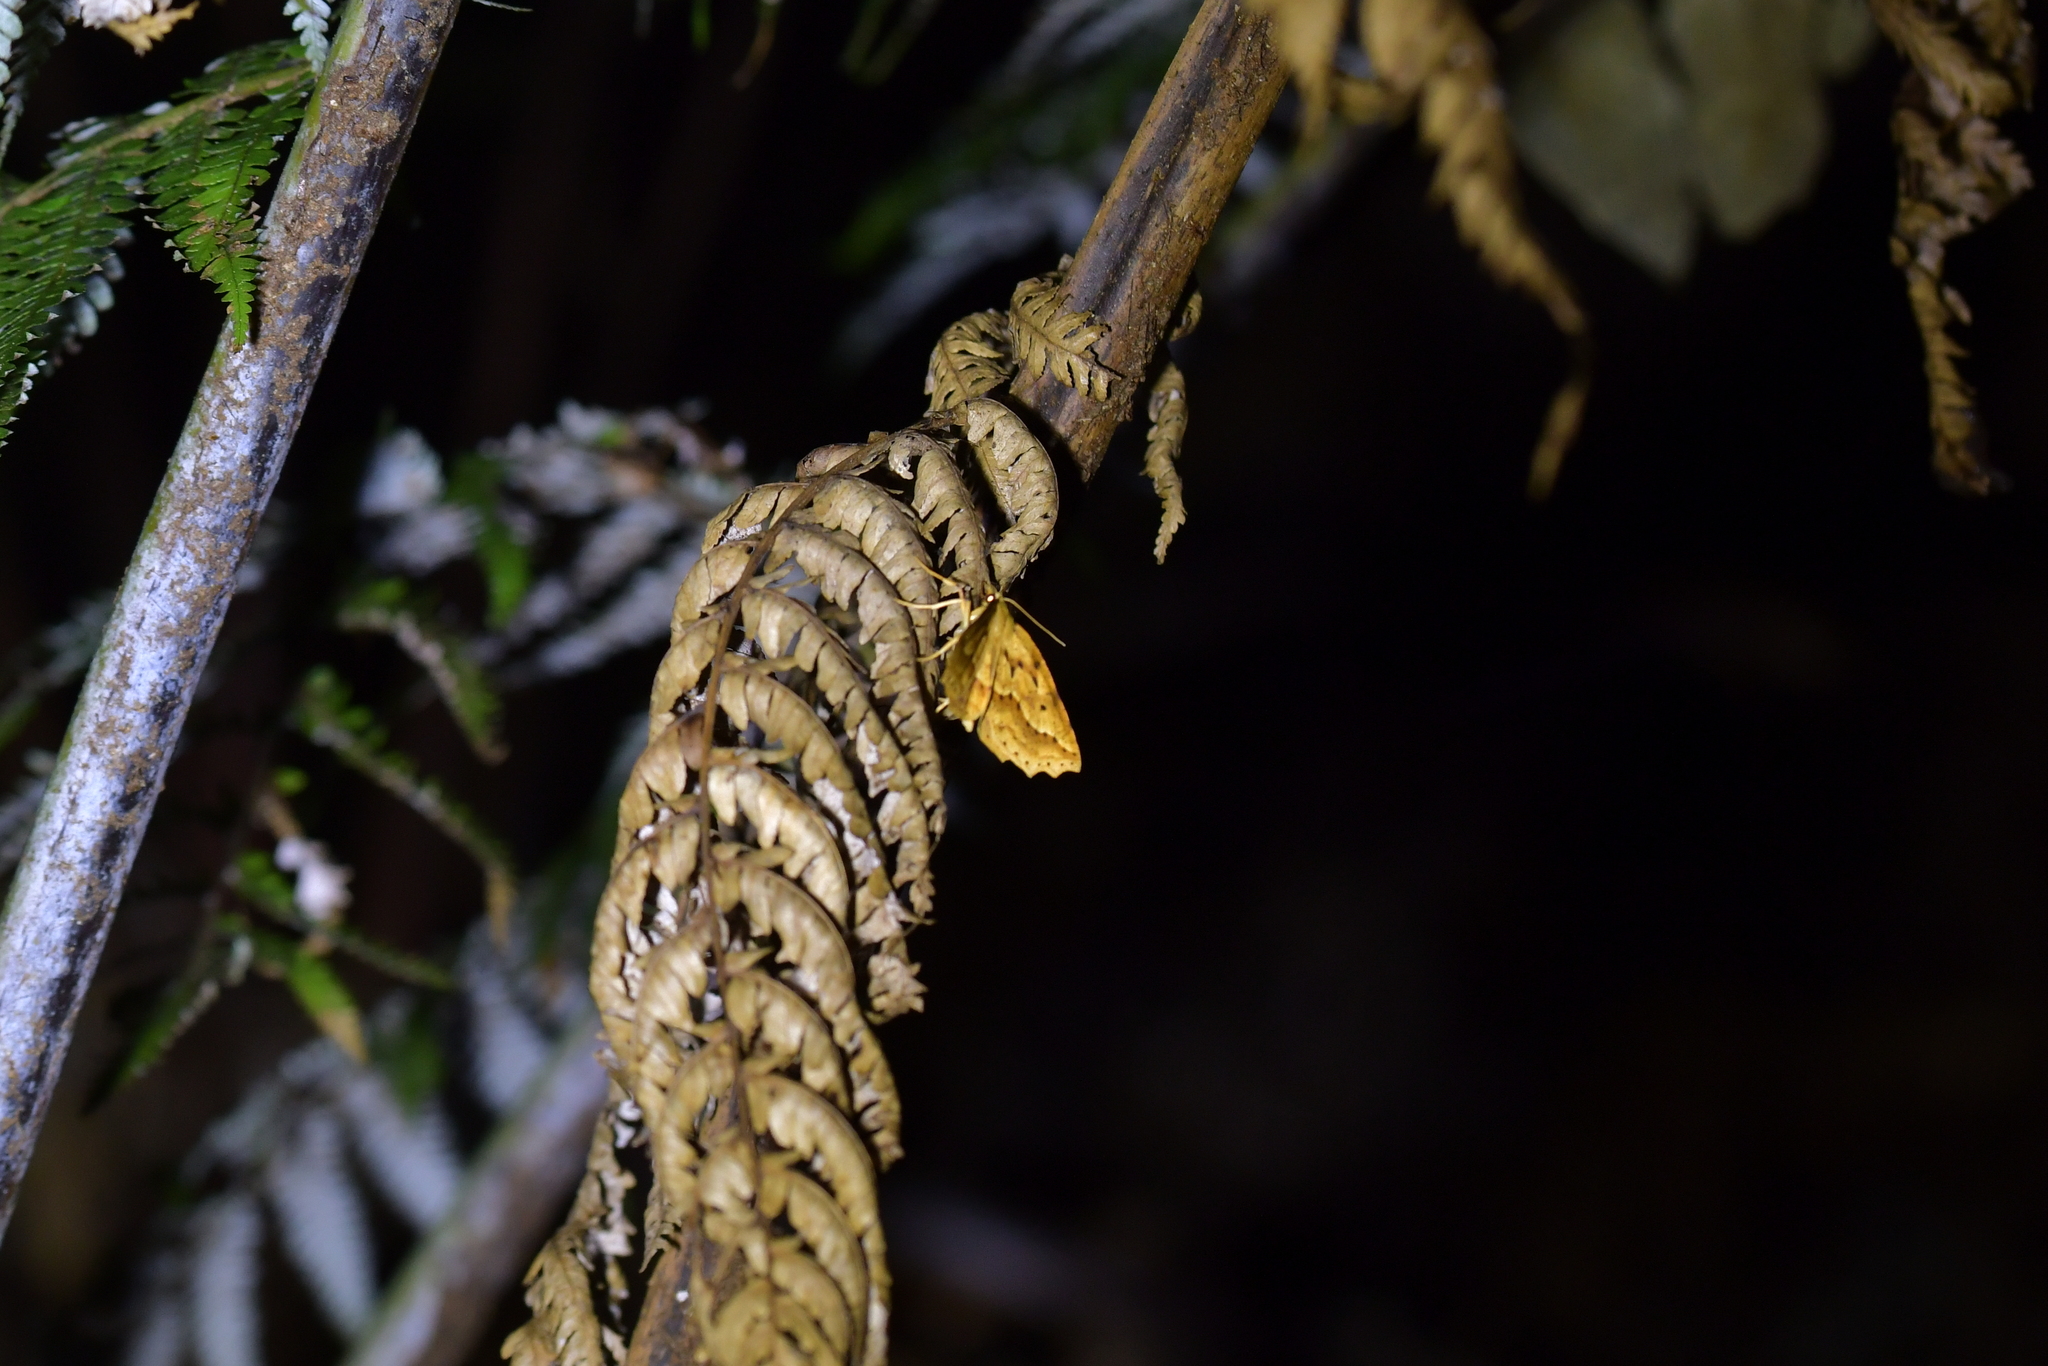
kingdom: Animalia
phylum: Arthropoda
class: Insecta
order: Lepidoptera
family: Geometridae
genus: Ischalis
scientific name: Ischalis variabilis
